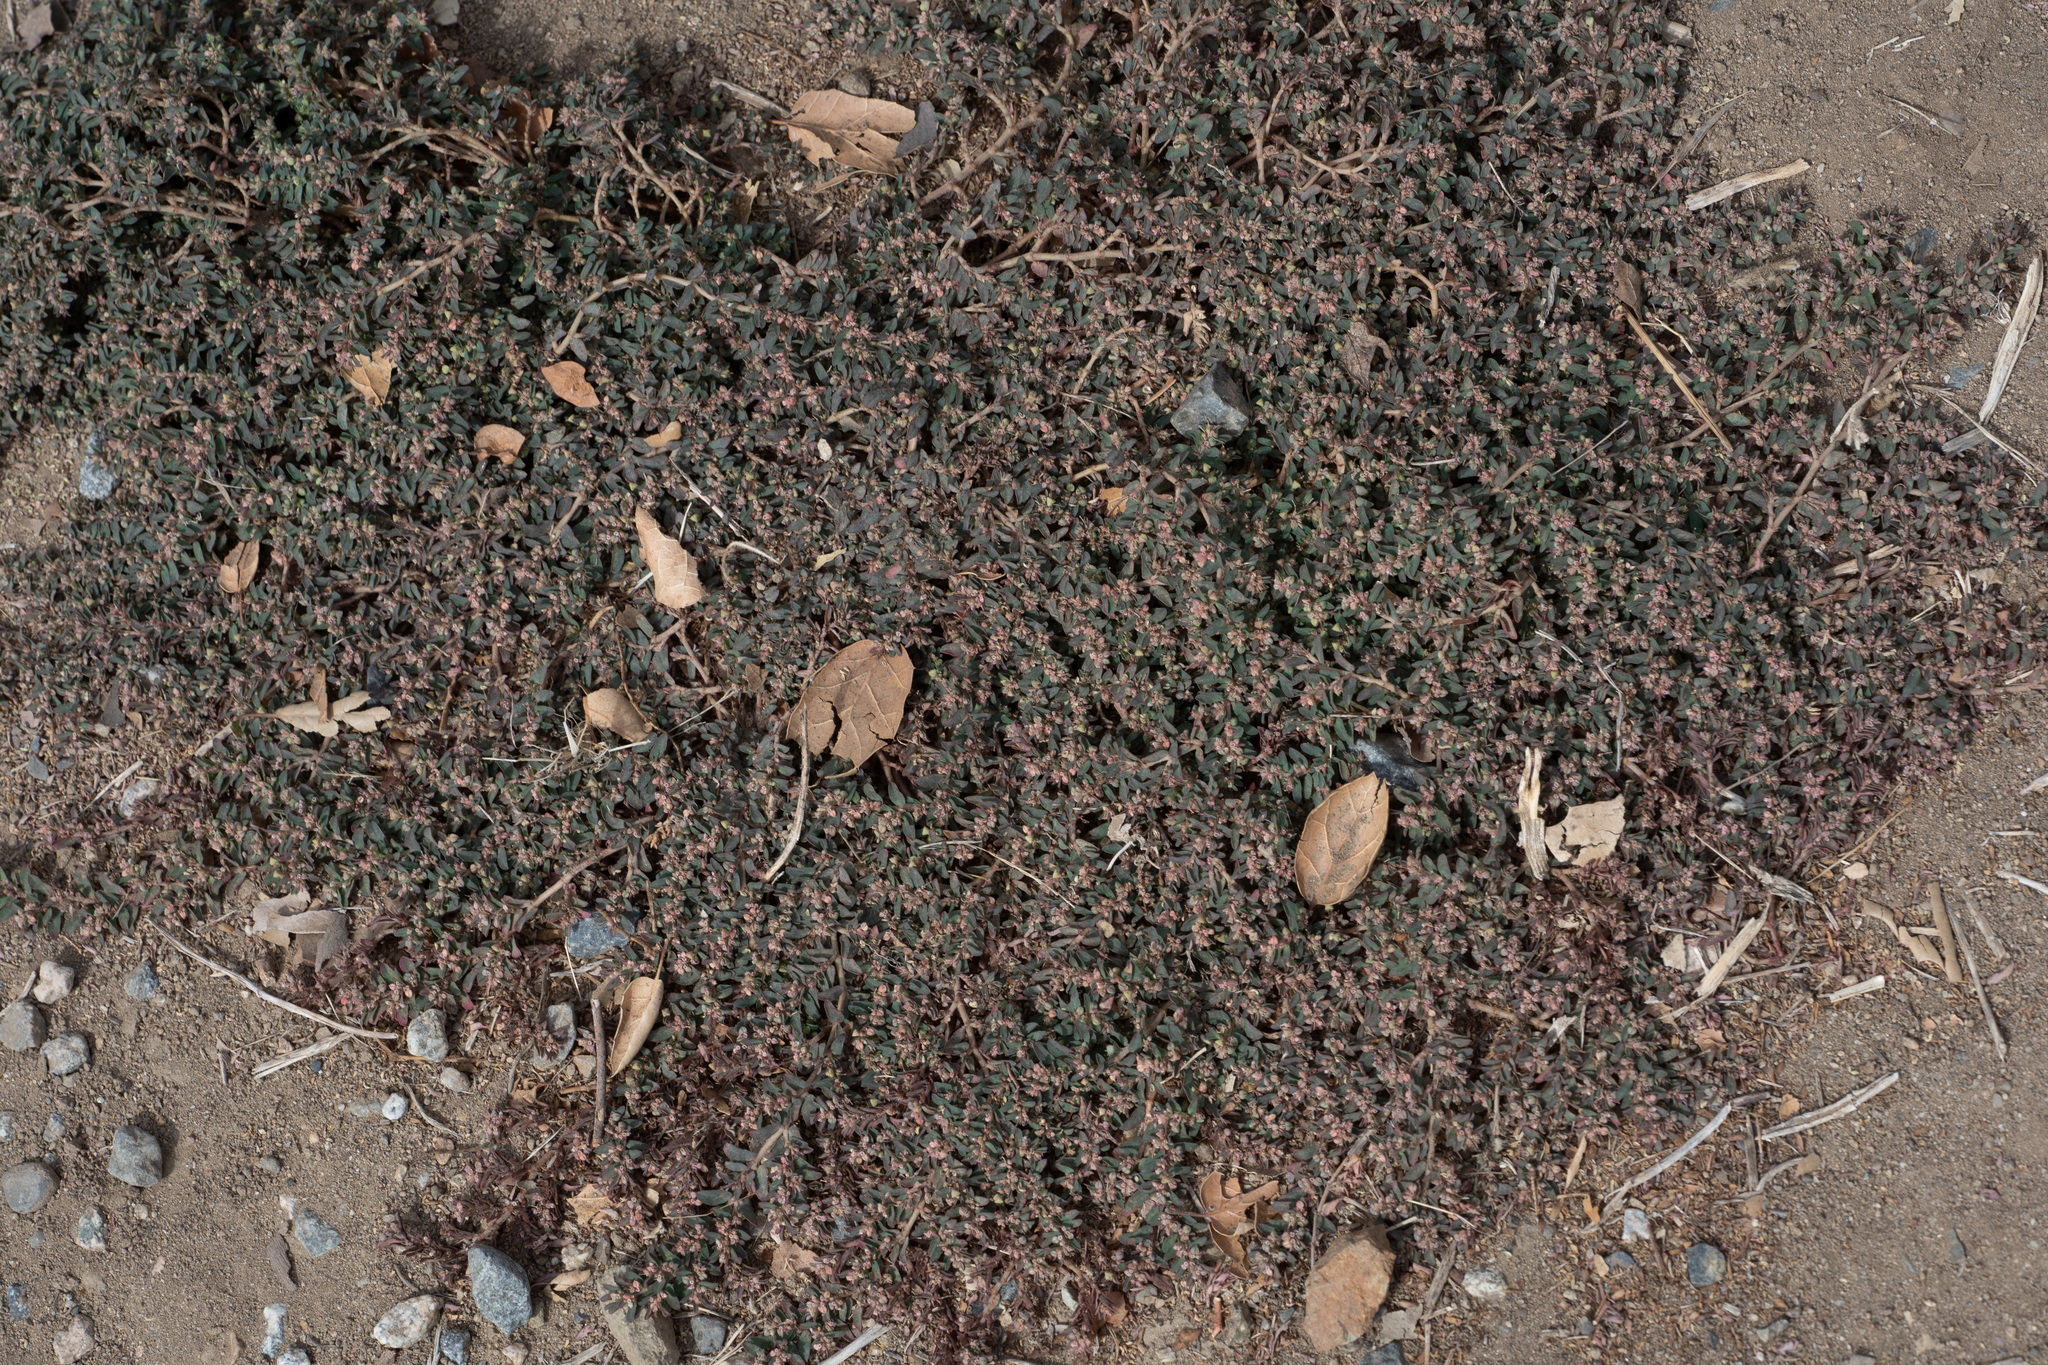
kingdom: Plantae
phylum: Tracheophyta
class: Magnoliopsida
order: Malpighiales
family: Euphorbiaceae
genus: Euphorbia
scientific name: Euphorbia maculata
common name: Spotted spurge
